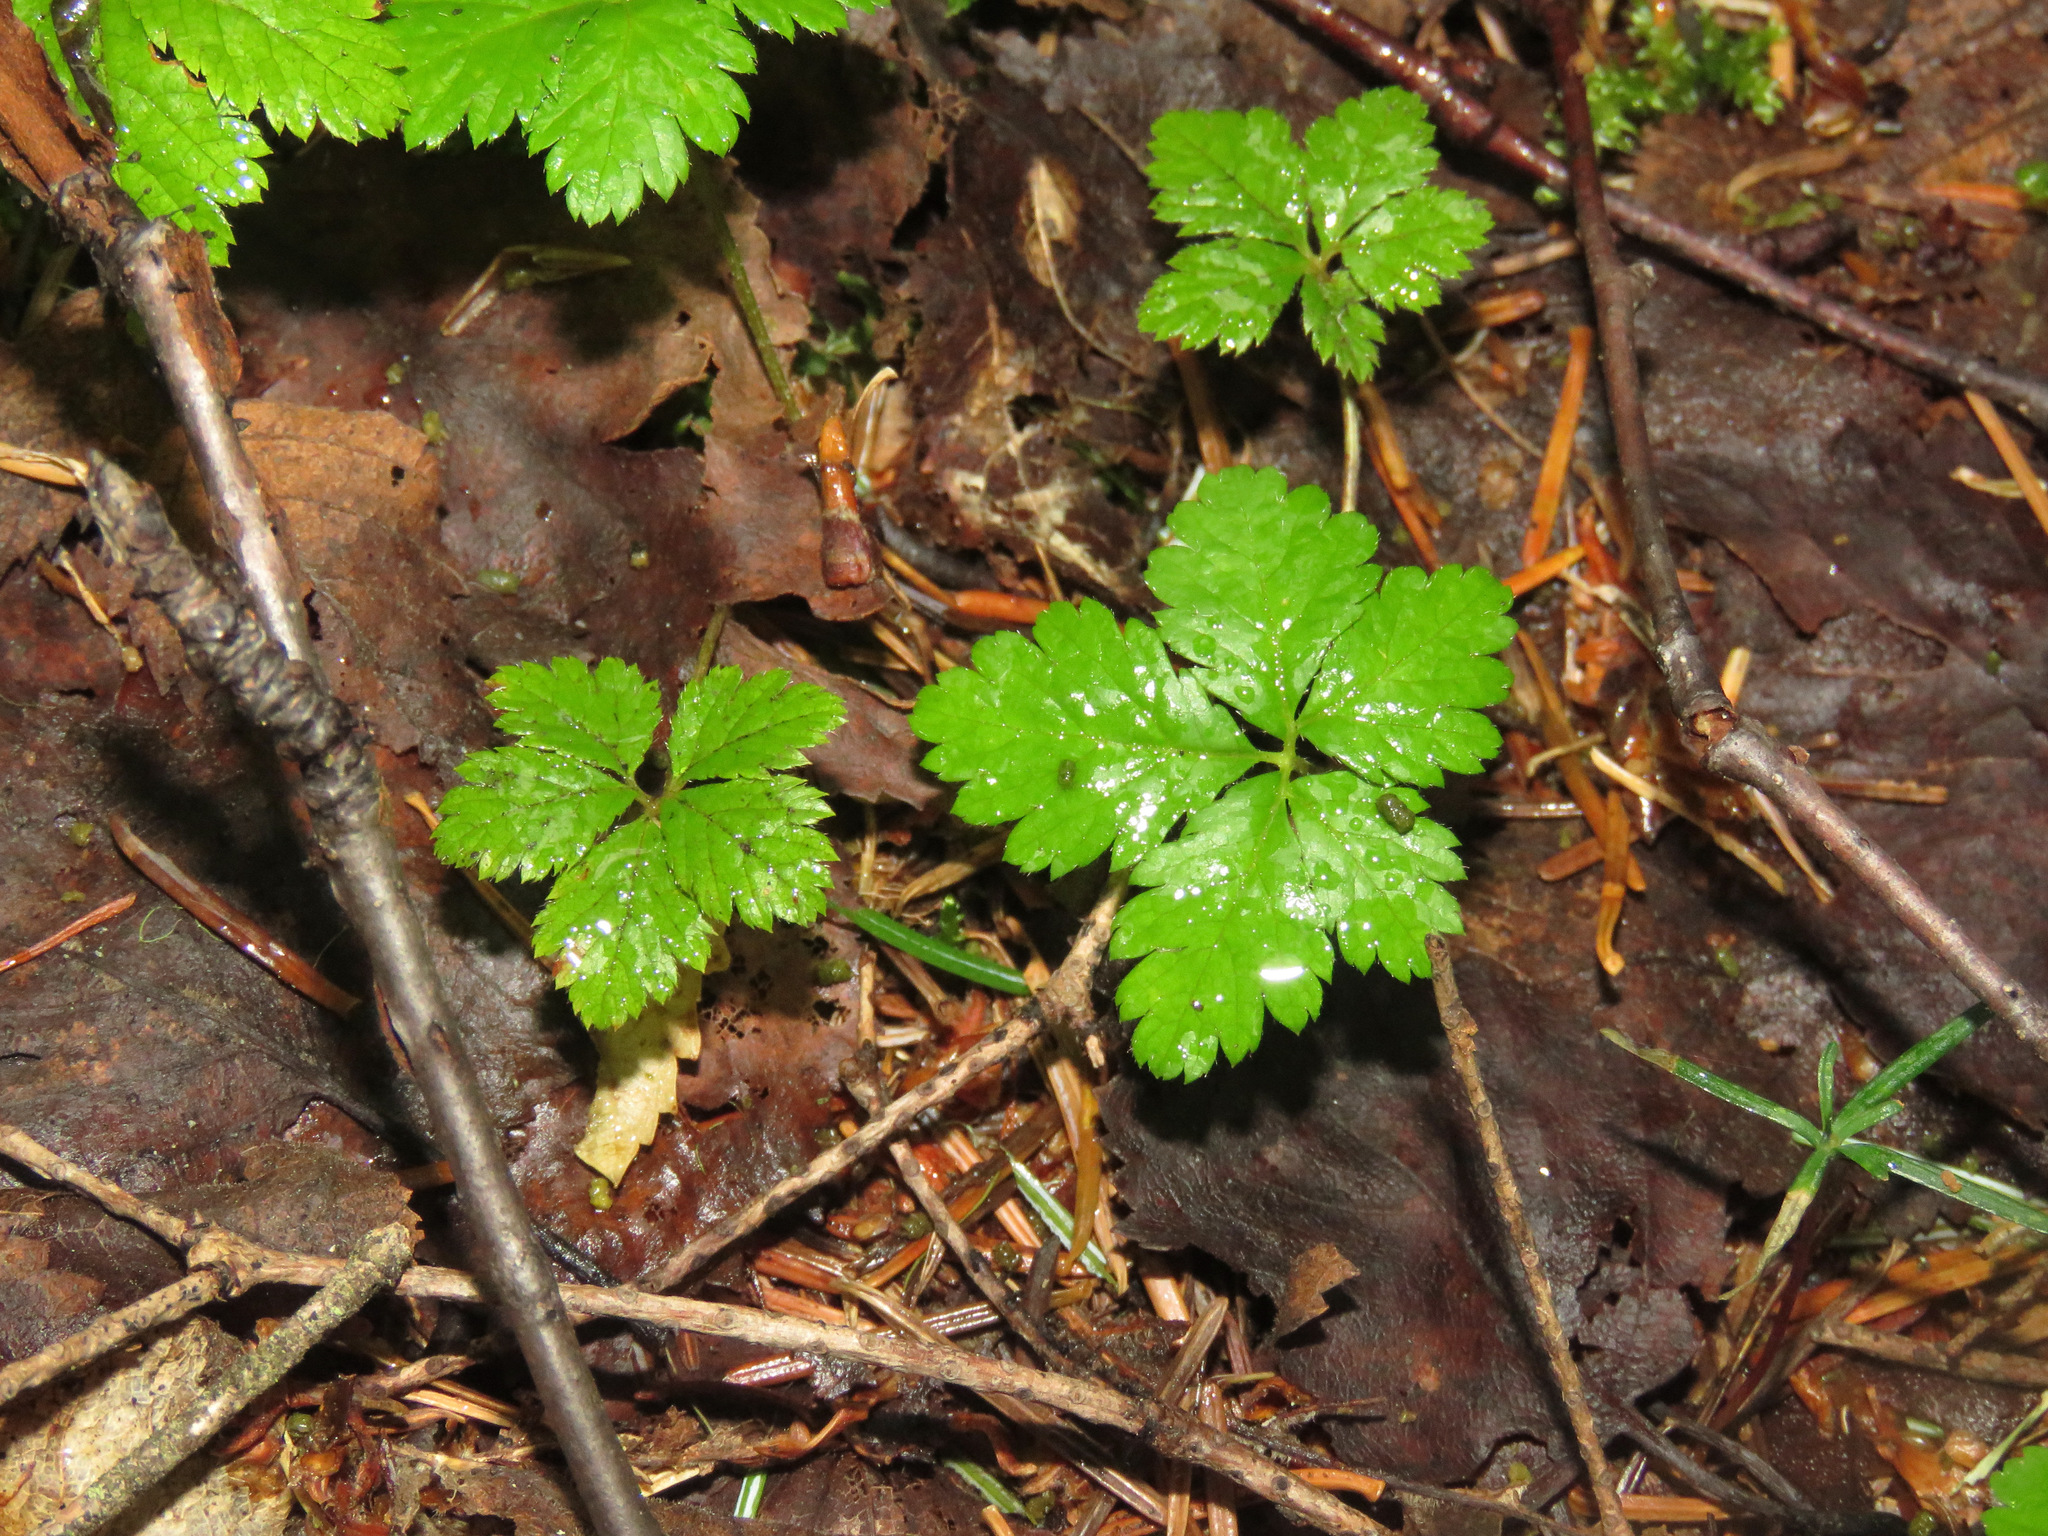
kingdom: Plantae
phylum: Tracheophyta
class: Magnoliopsida
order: Rosales
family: Rosaceae
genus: Rubus
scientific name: Rubus pedatus
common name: Creeping raspberry
